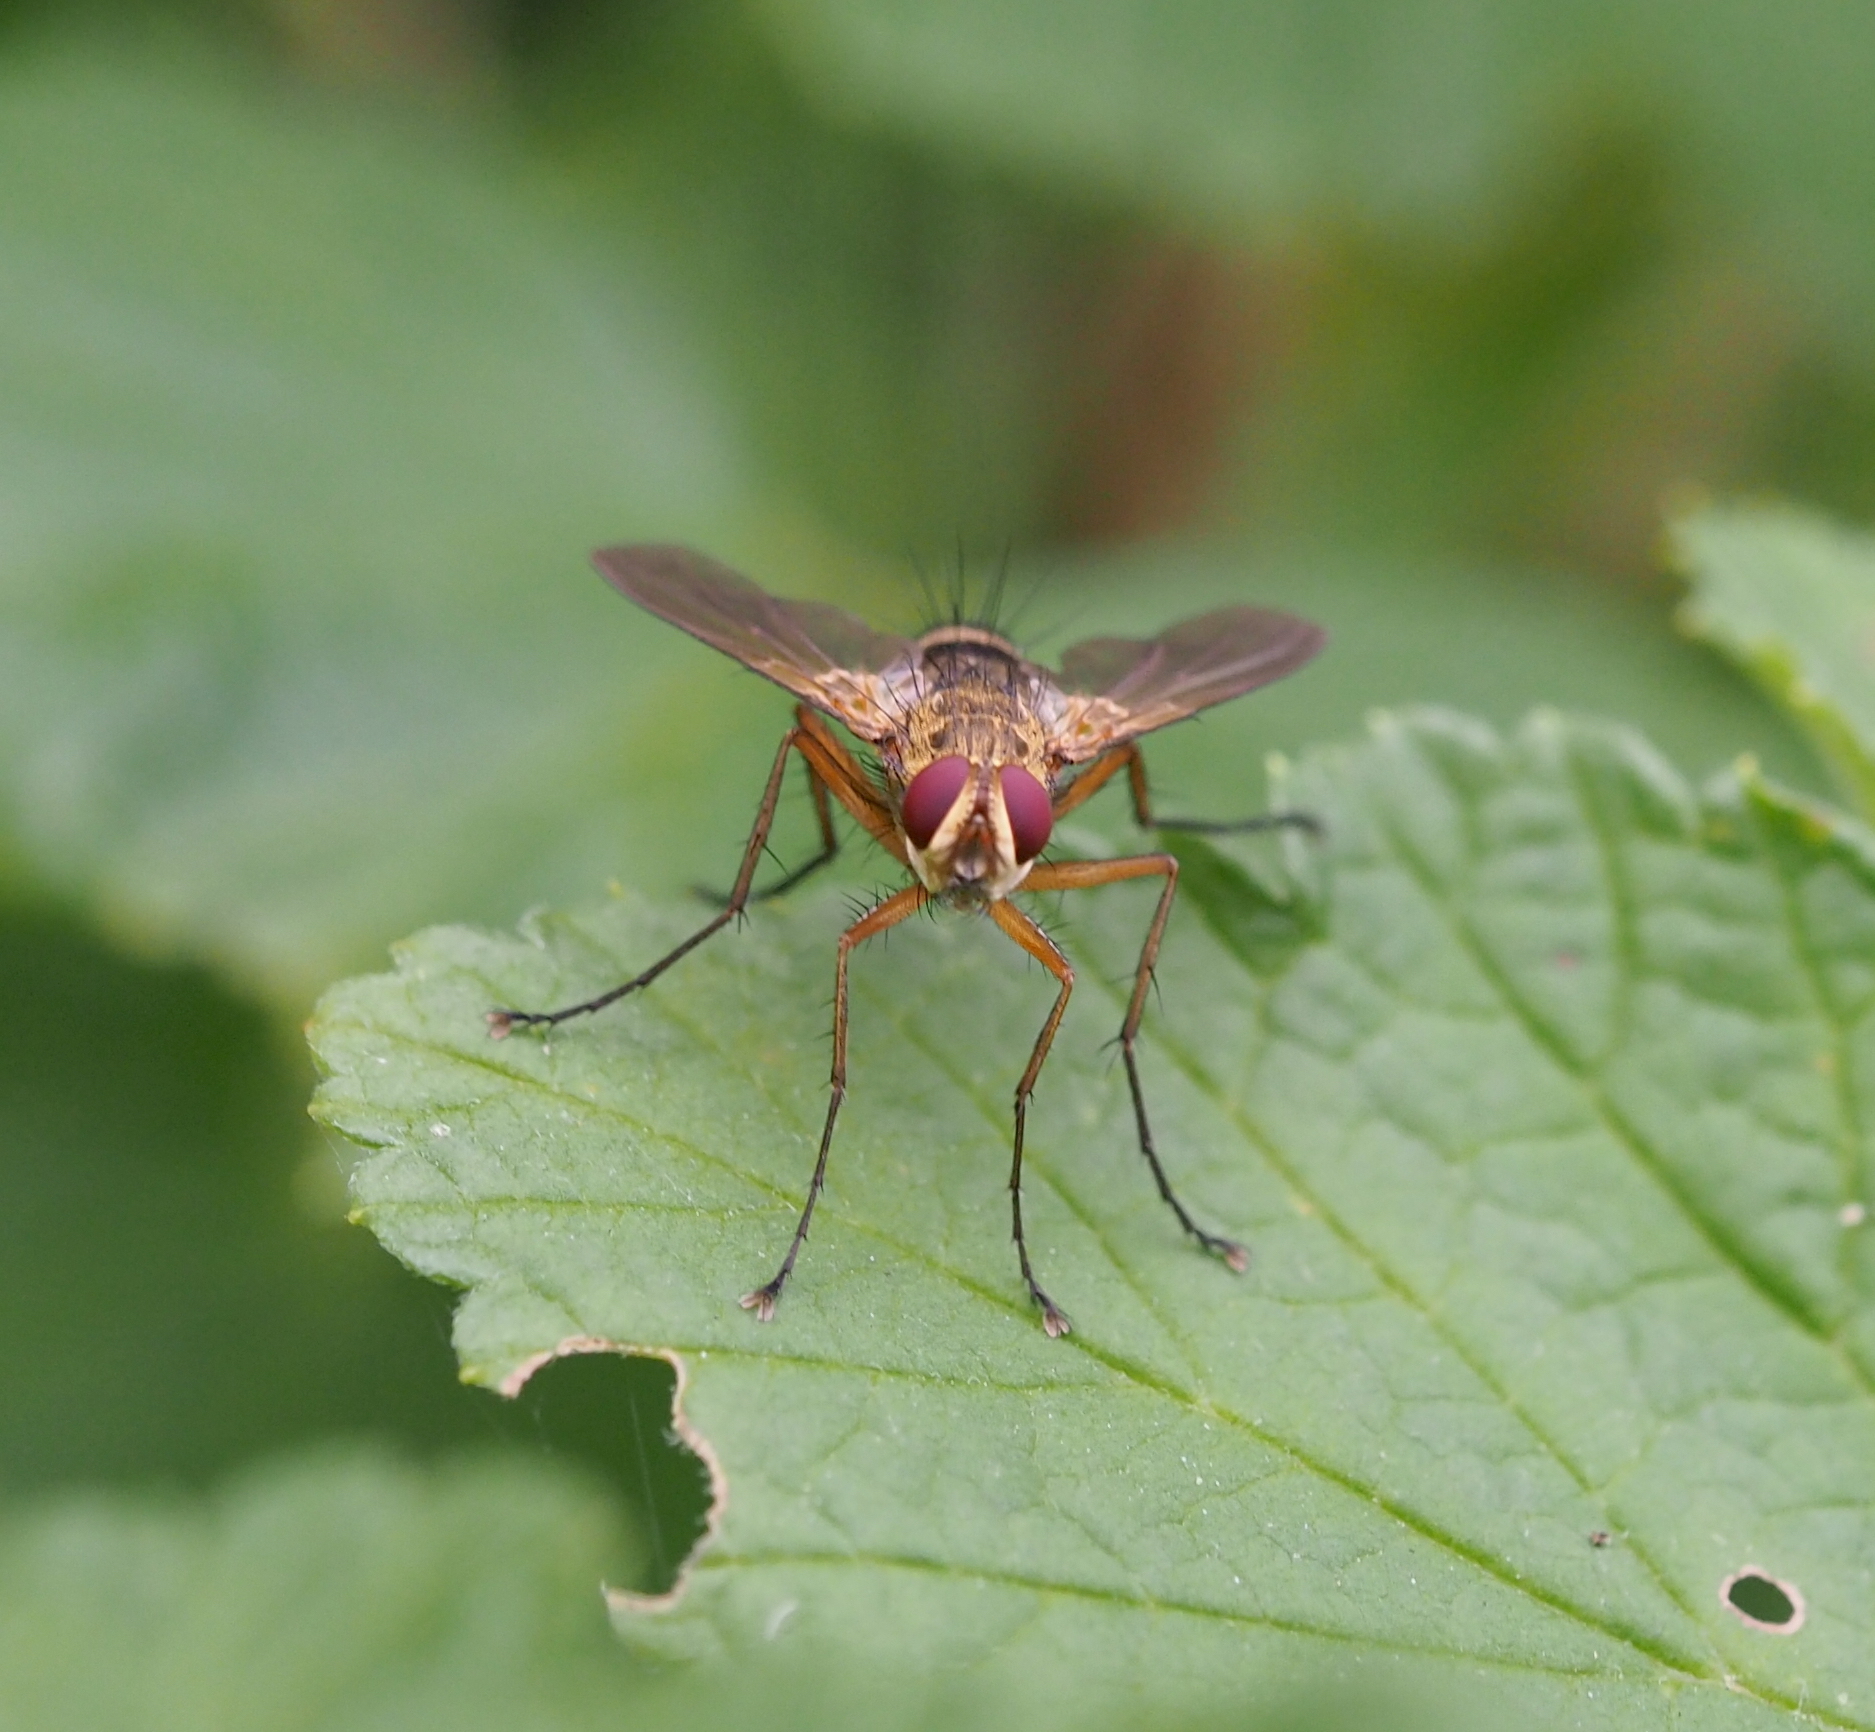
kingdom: Animalia
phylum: Arthropoda
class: Insecta
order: Diptera
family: Tachinidae
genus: Dexiosoma
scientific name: Dexiosoma caninum
